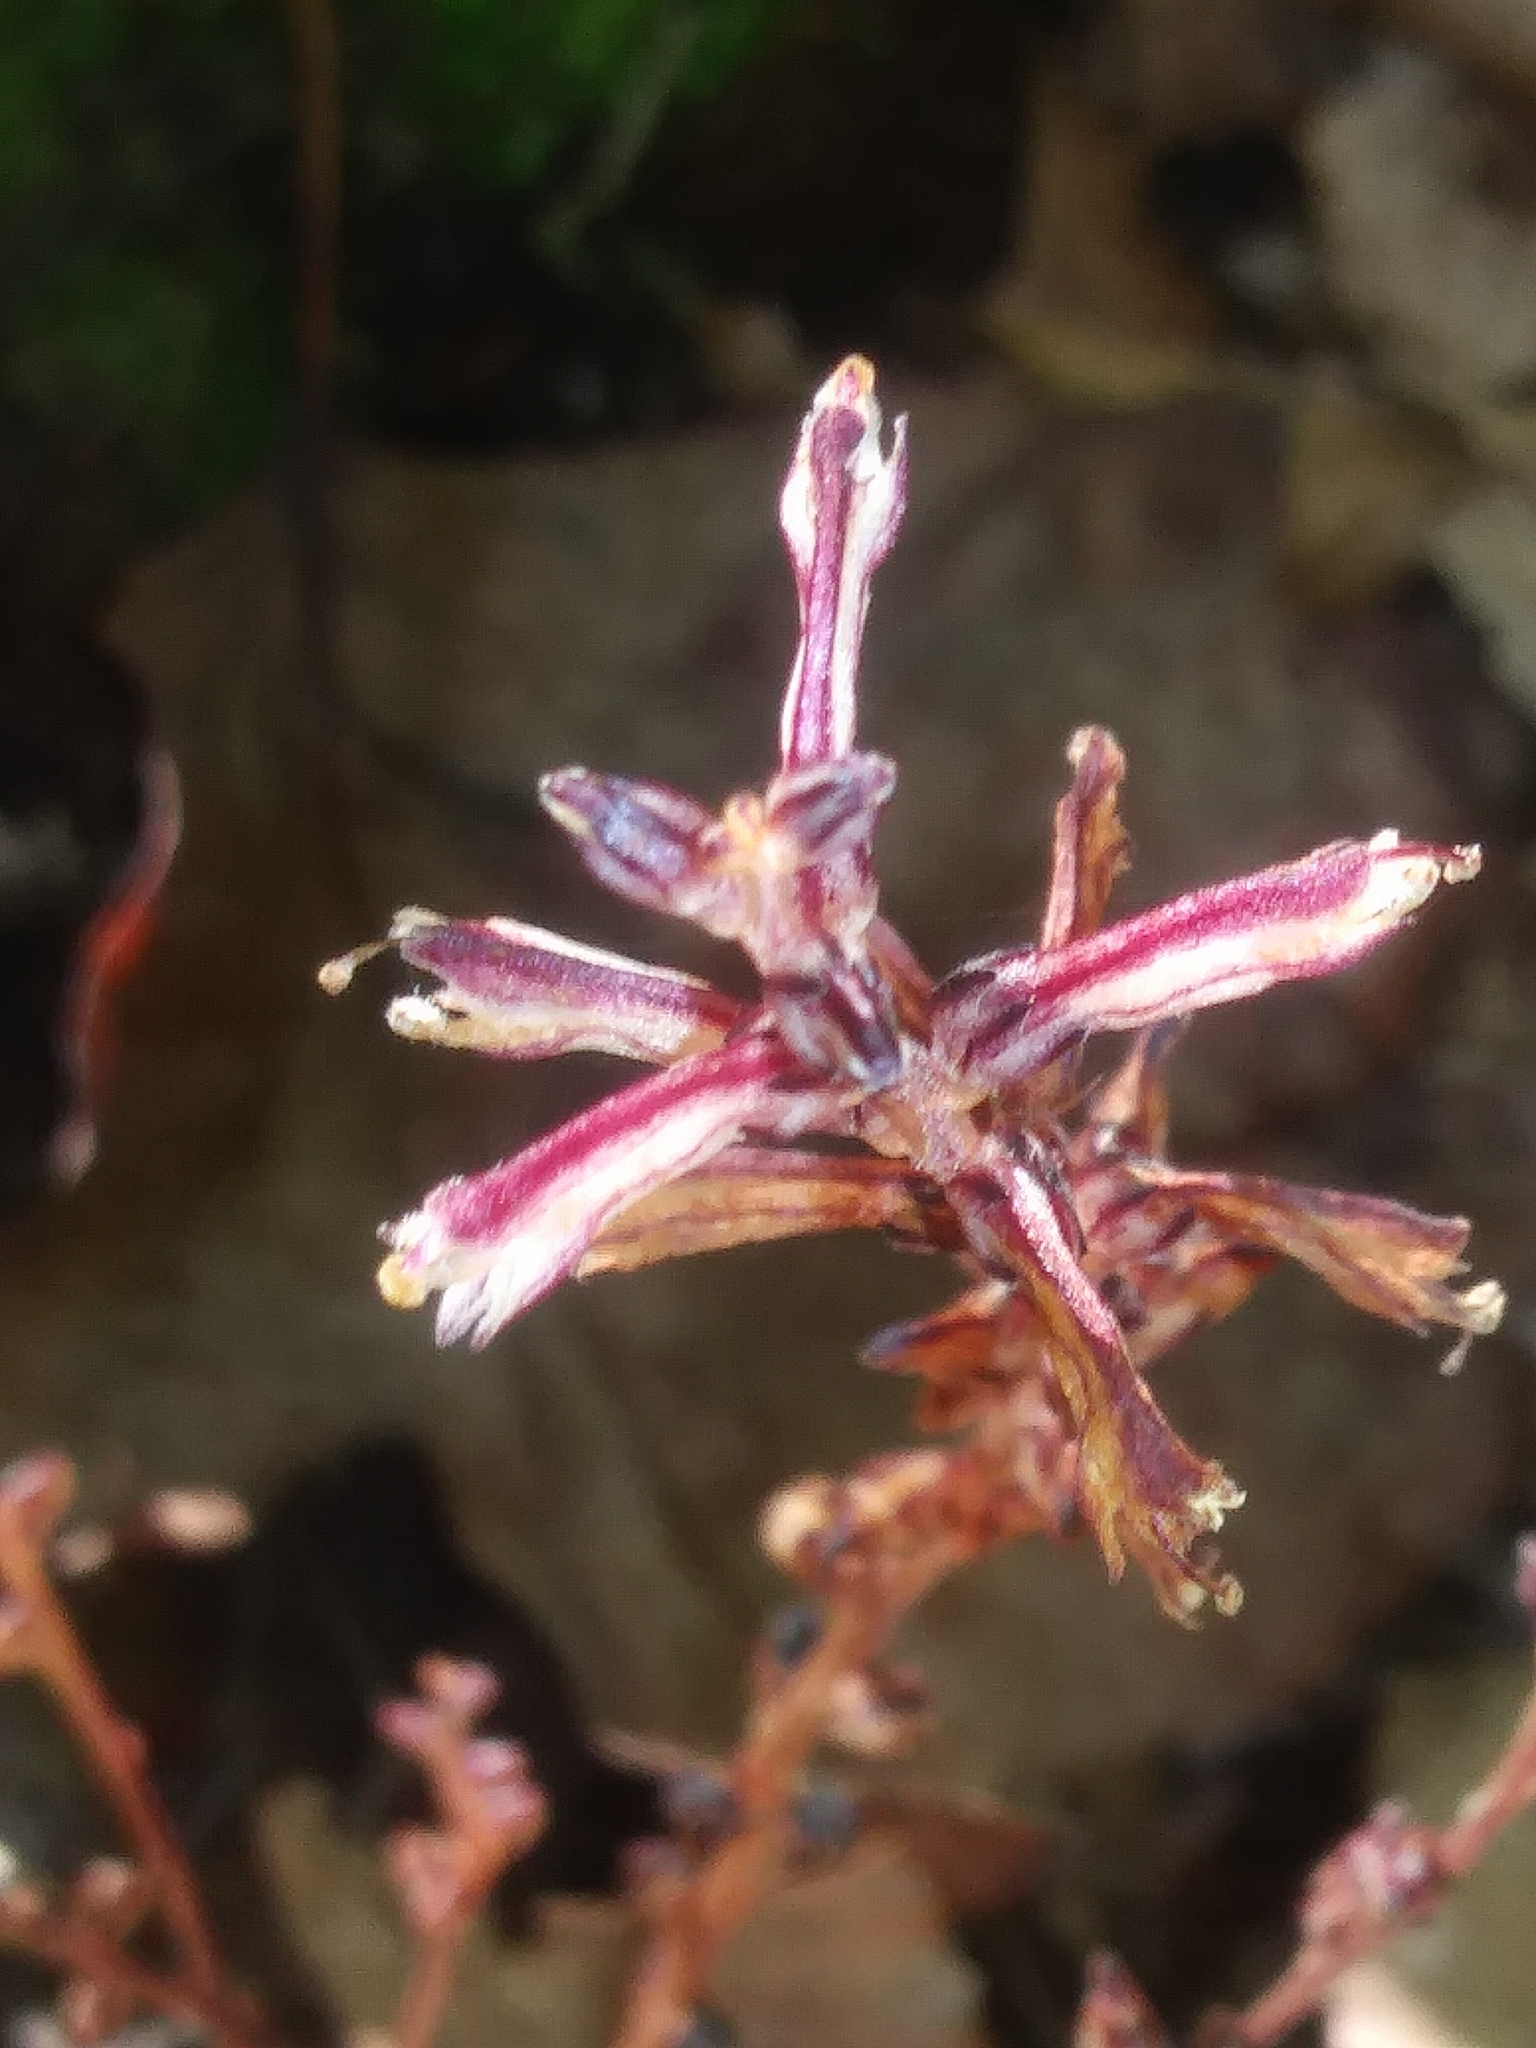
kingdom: Plantae
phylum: Tracheophyta
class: Magnoliopsida
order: Lamiales
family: Orobanchaceae
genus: Epifagus
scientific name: Epifagus virginiana
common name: Beechdrops
